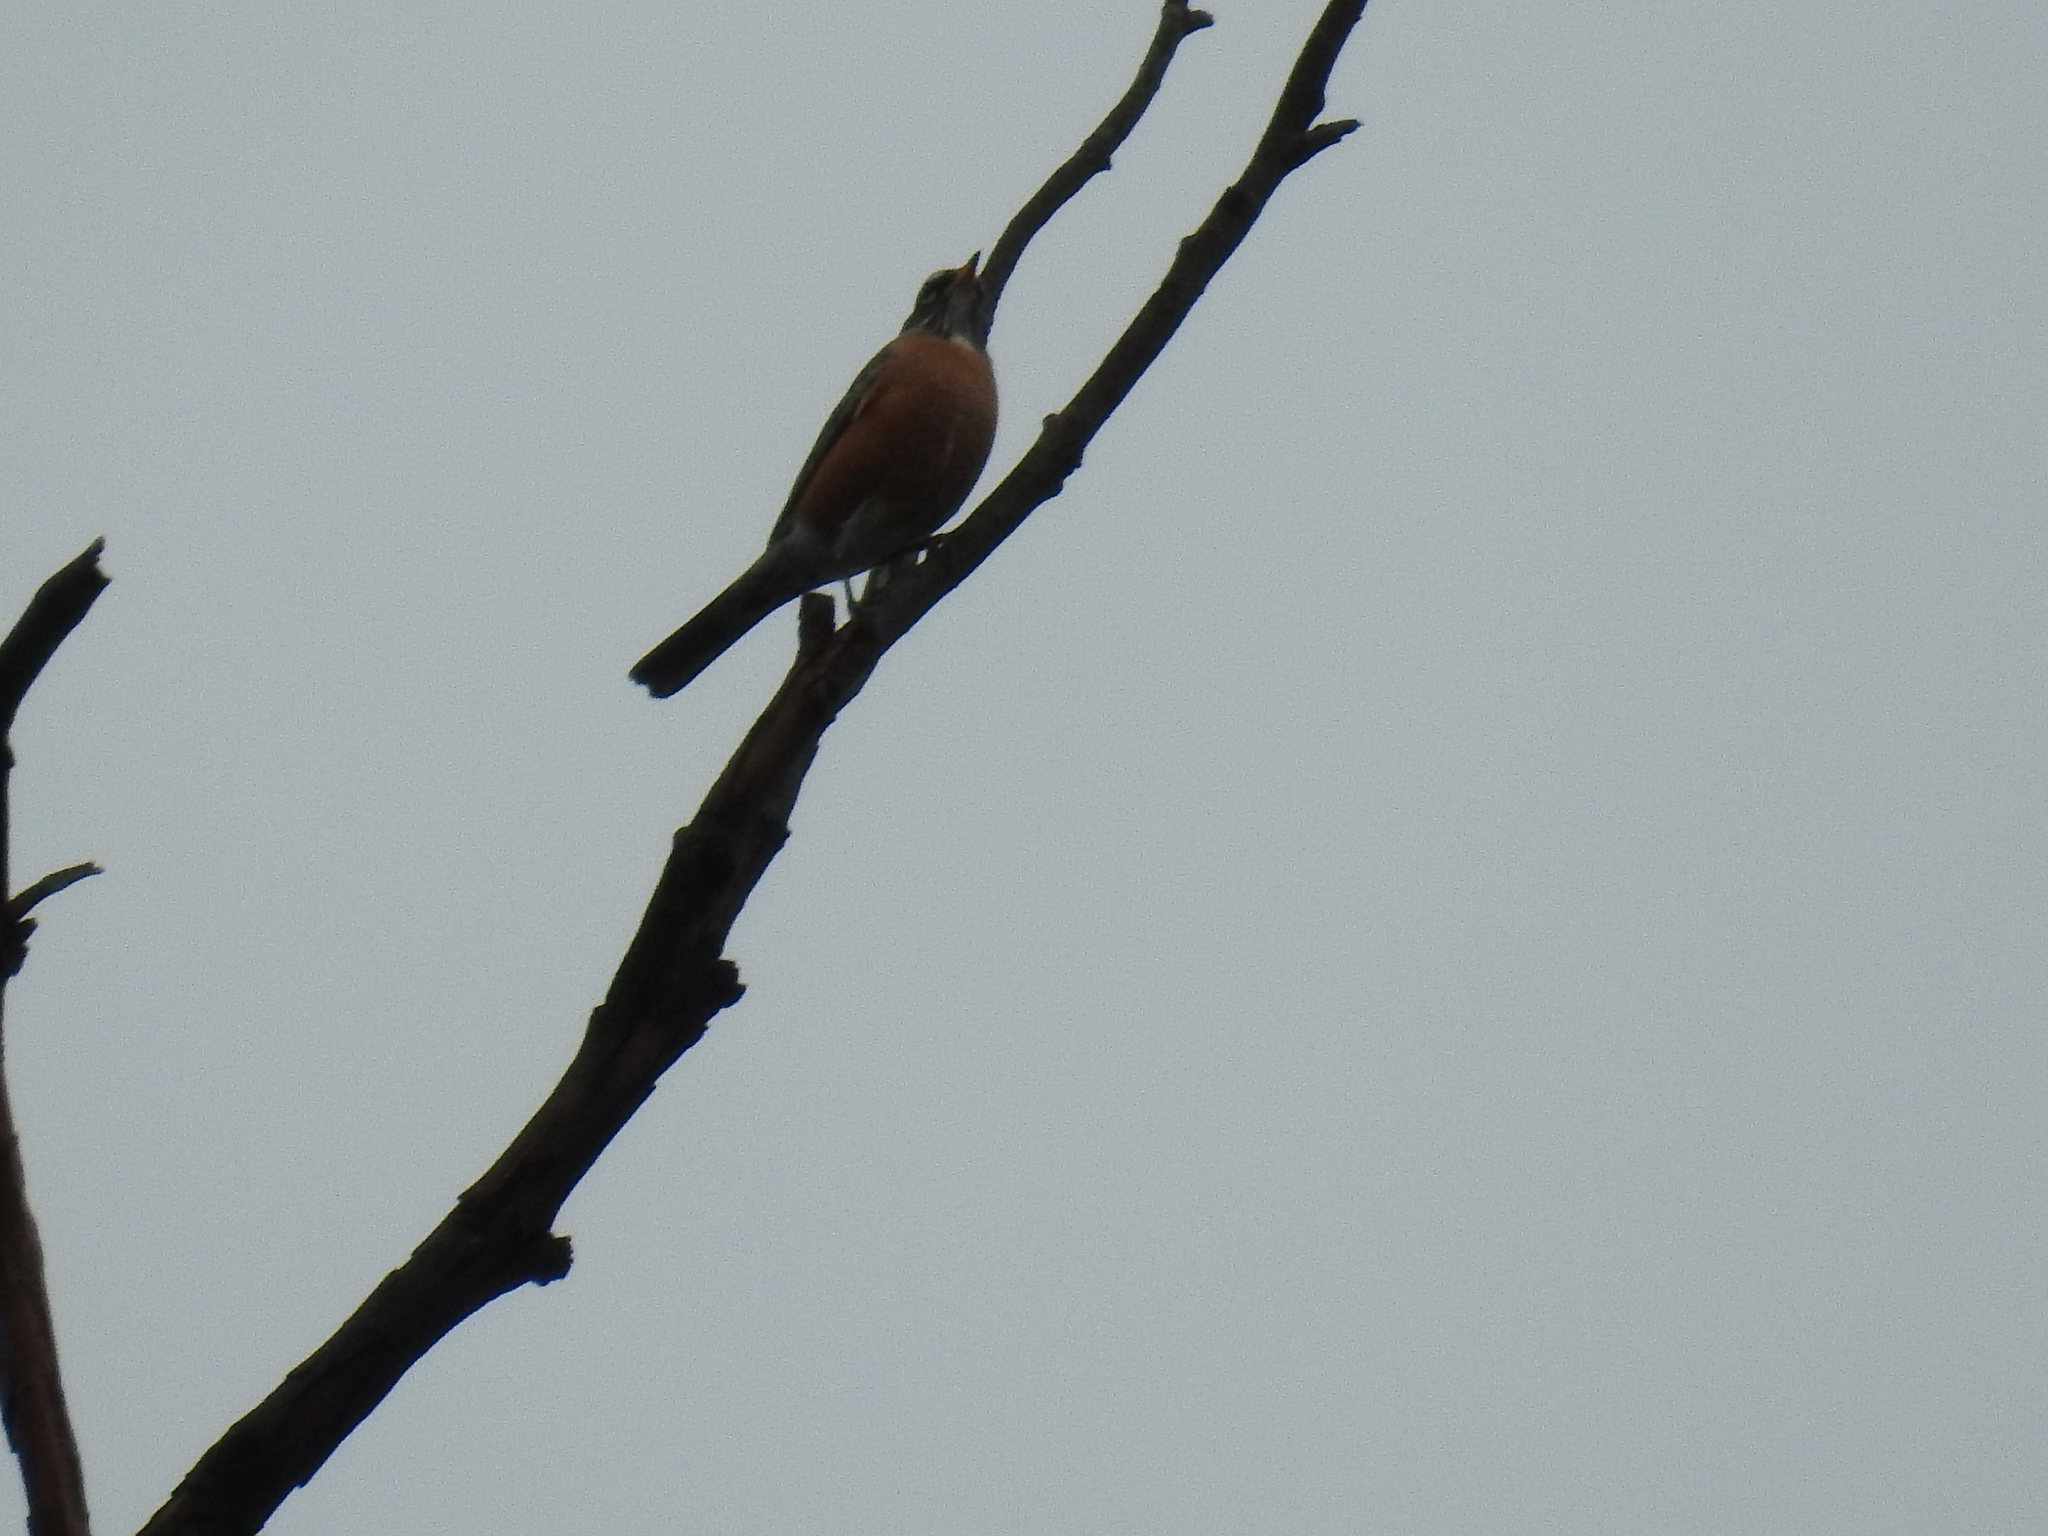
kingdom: Animalia
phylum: Chordata
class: Aves
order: Passeriformes
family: Turdidae
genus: Turdus
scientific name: Turdus migratorius
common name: American robin
